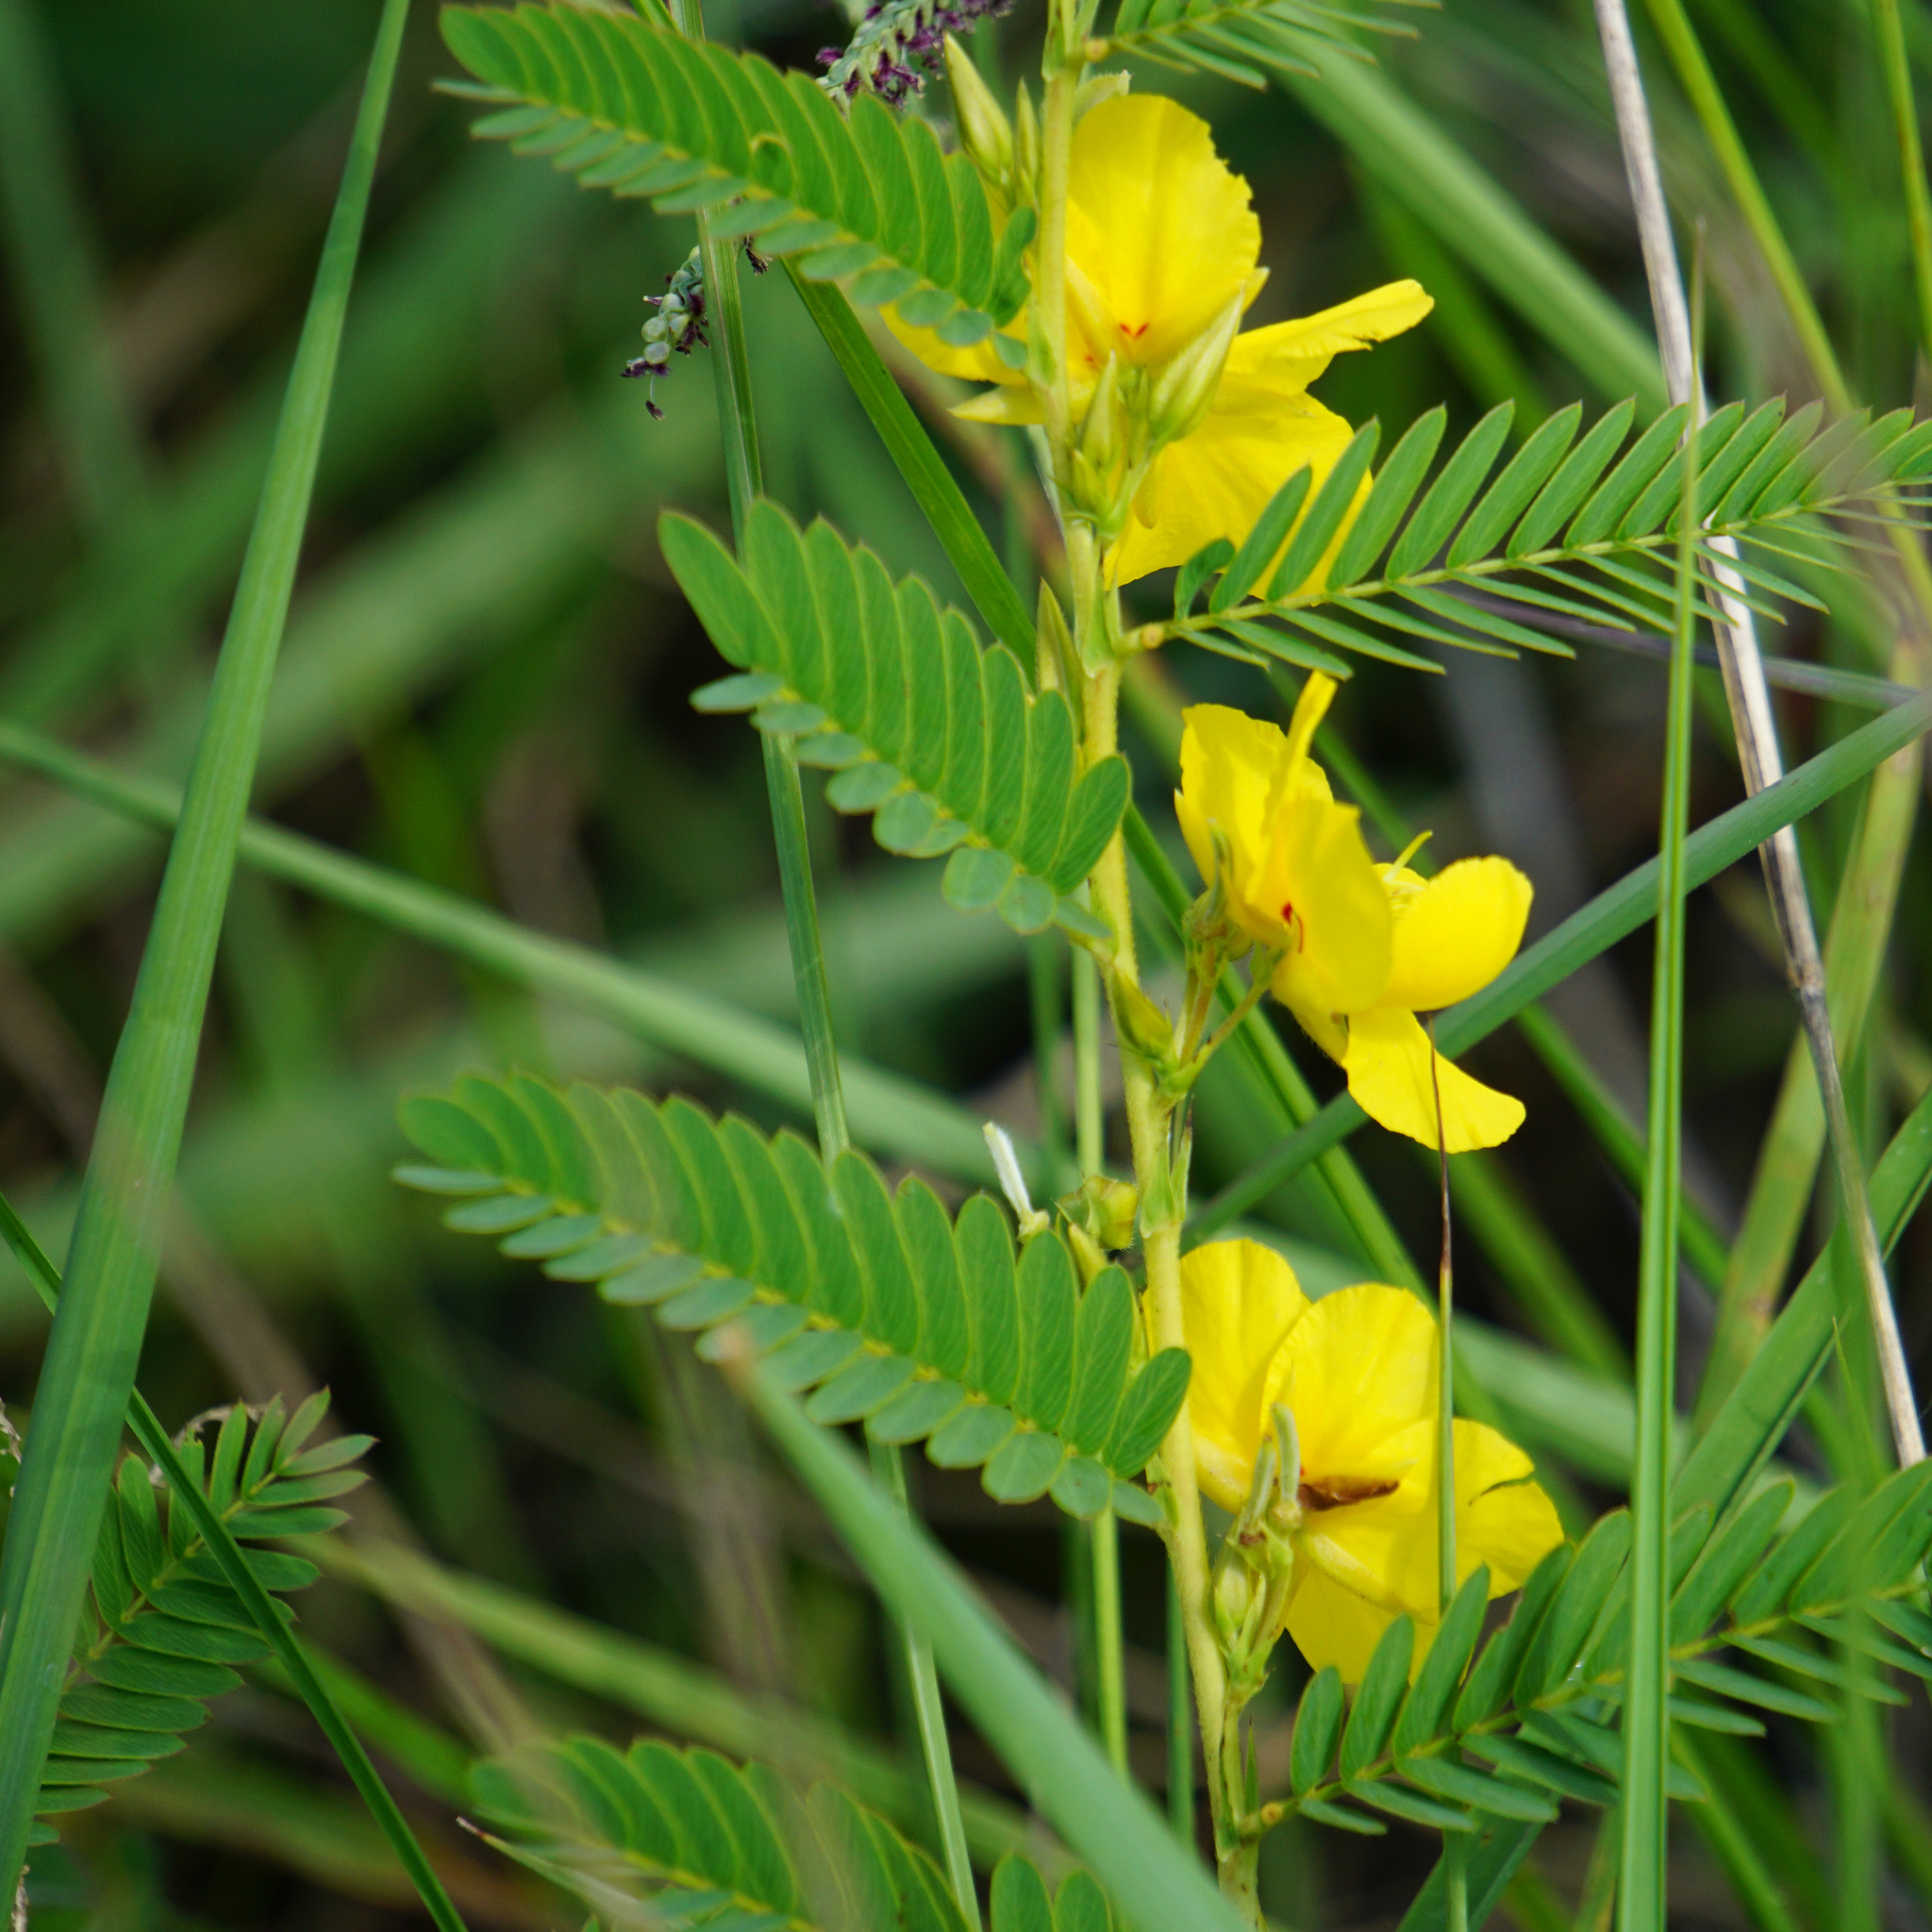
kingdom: Plantae
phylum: Tracheophyta
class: Magnoliopsida
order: Fabales
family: Fabaceae
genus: Chamaecrista
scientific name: Chamaecrista fasciculata
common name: Golden cassia
